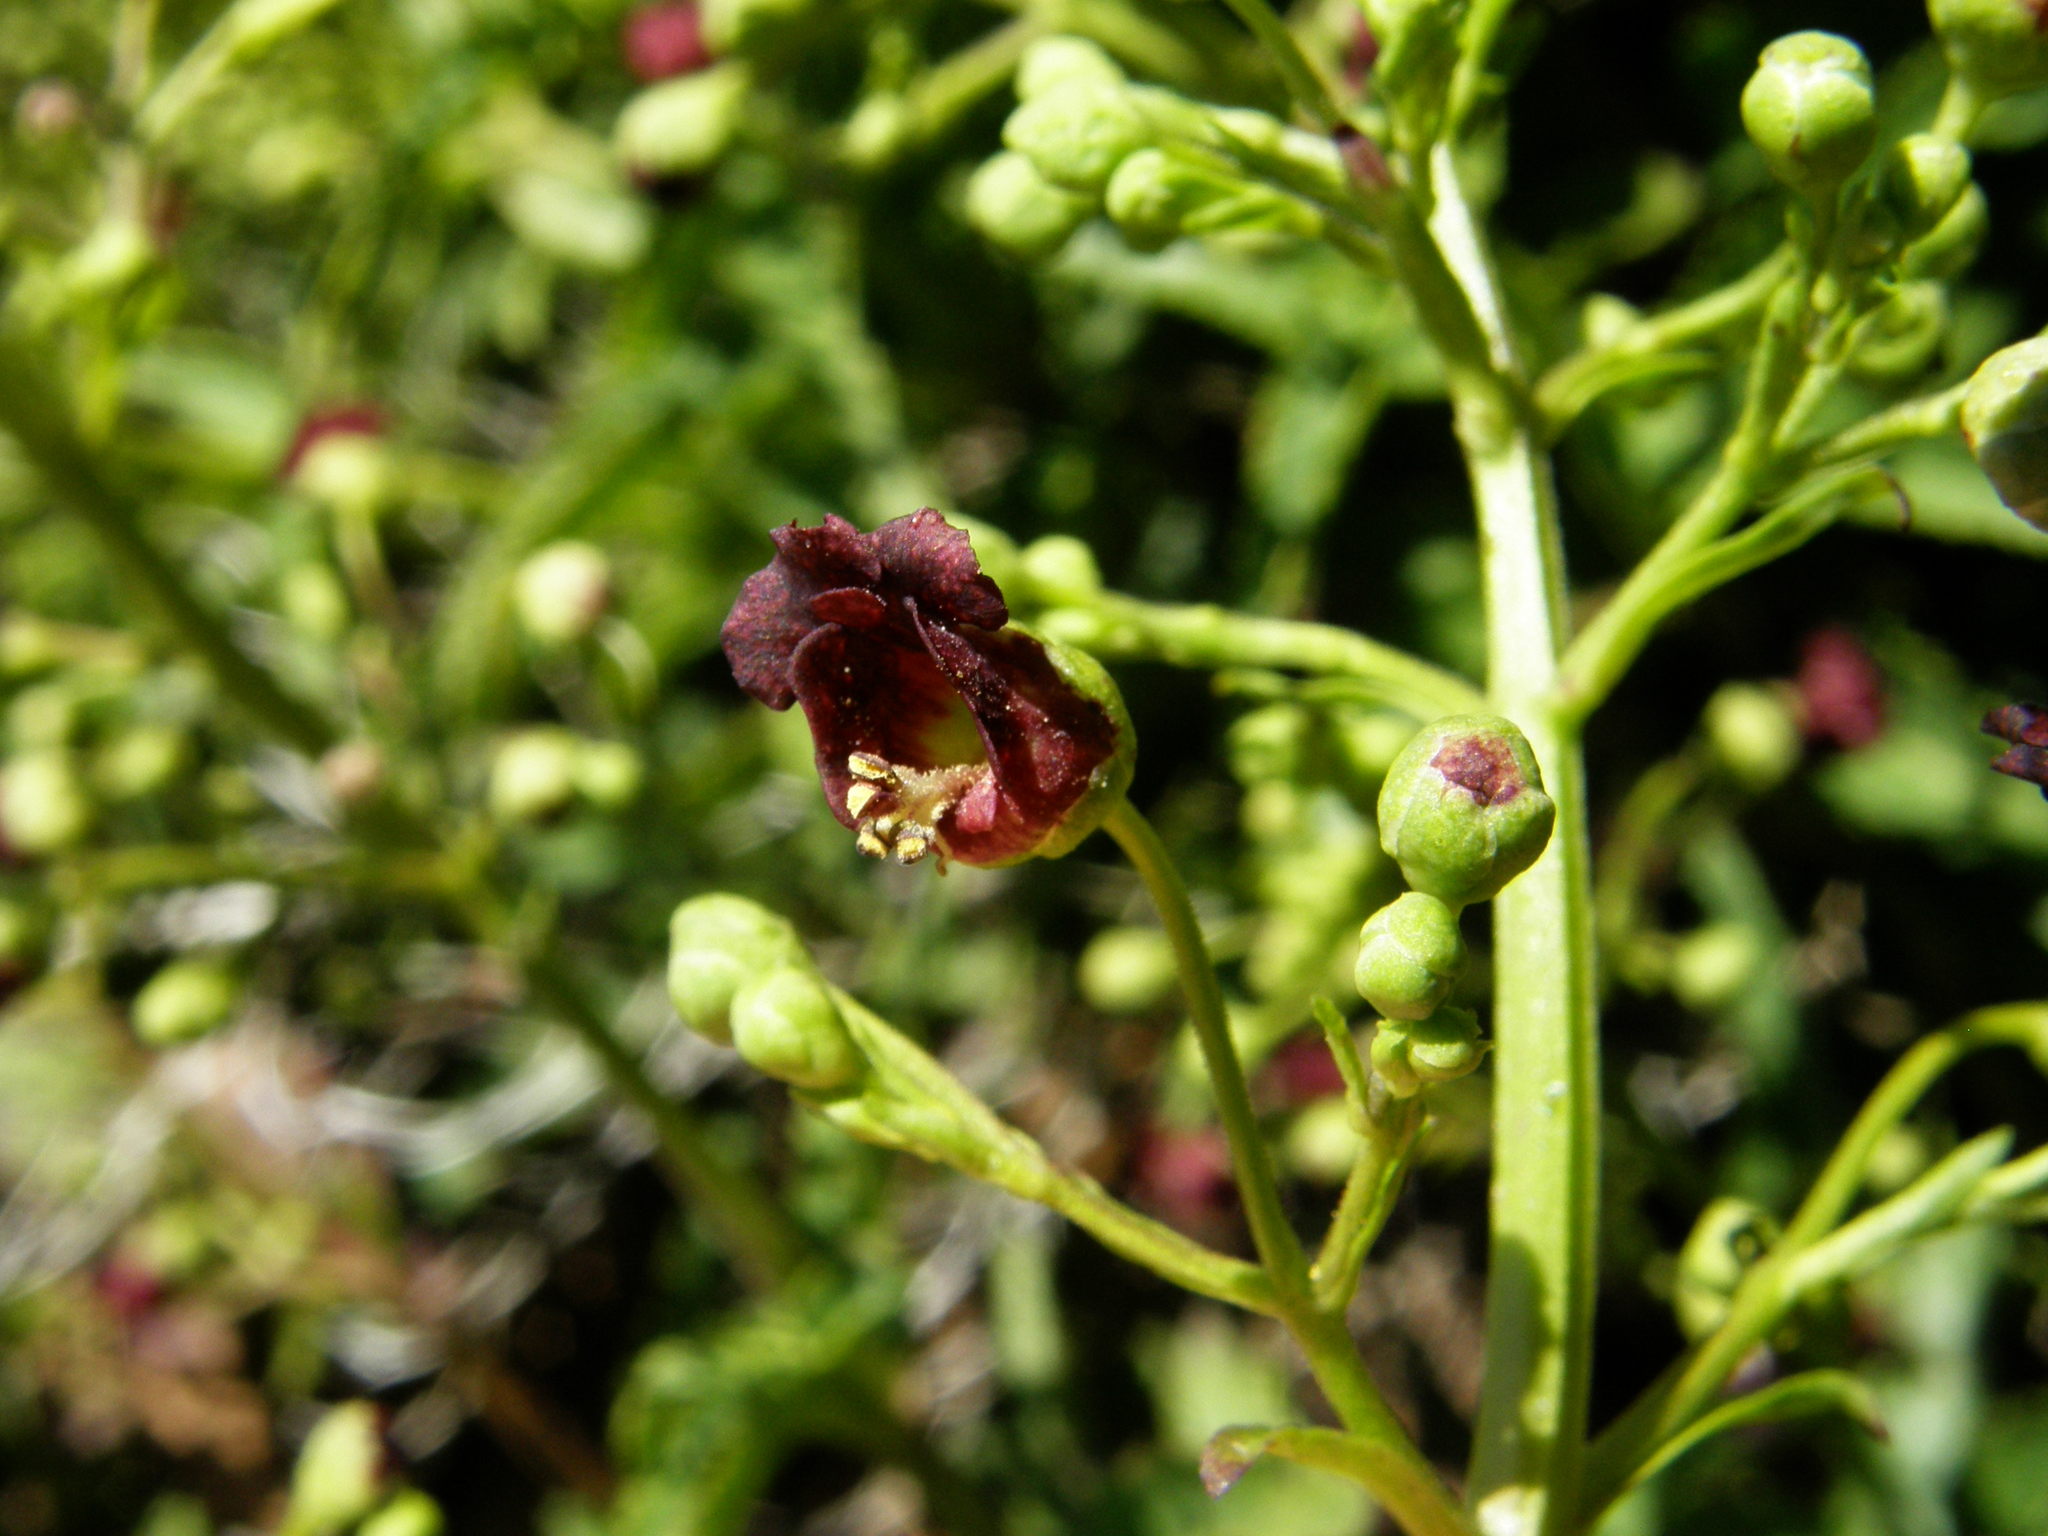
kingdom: Plantae
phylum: Tracheophyta
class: Magnoliopsida
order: Lamiales
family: Scrophulariaceae
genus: Scrophularia
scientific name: Scrophularia glabrata
